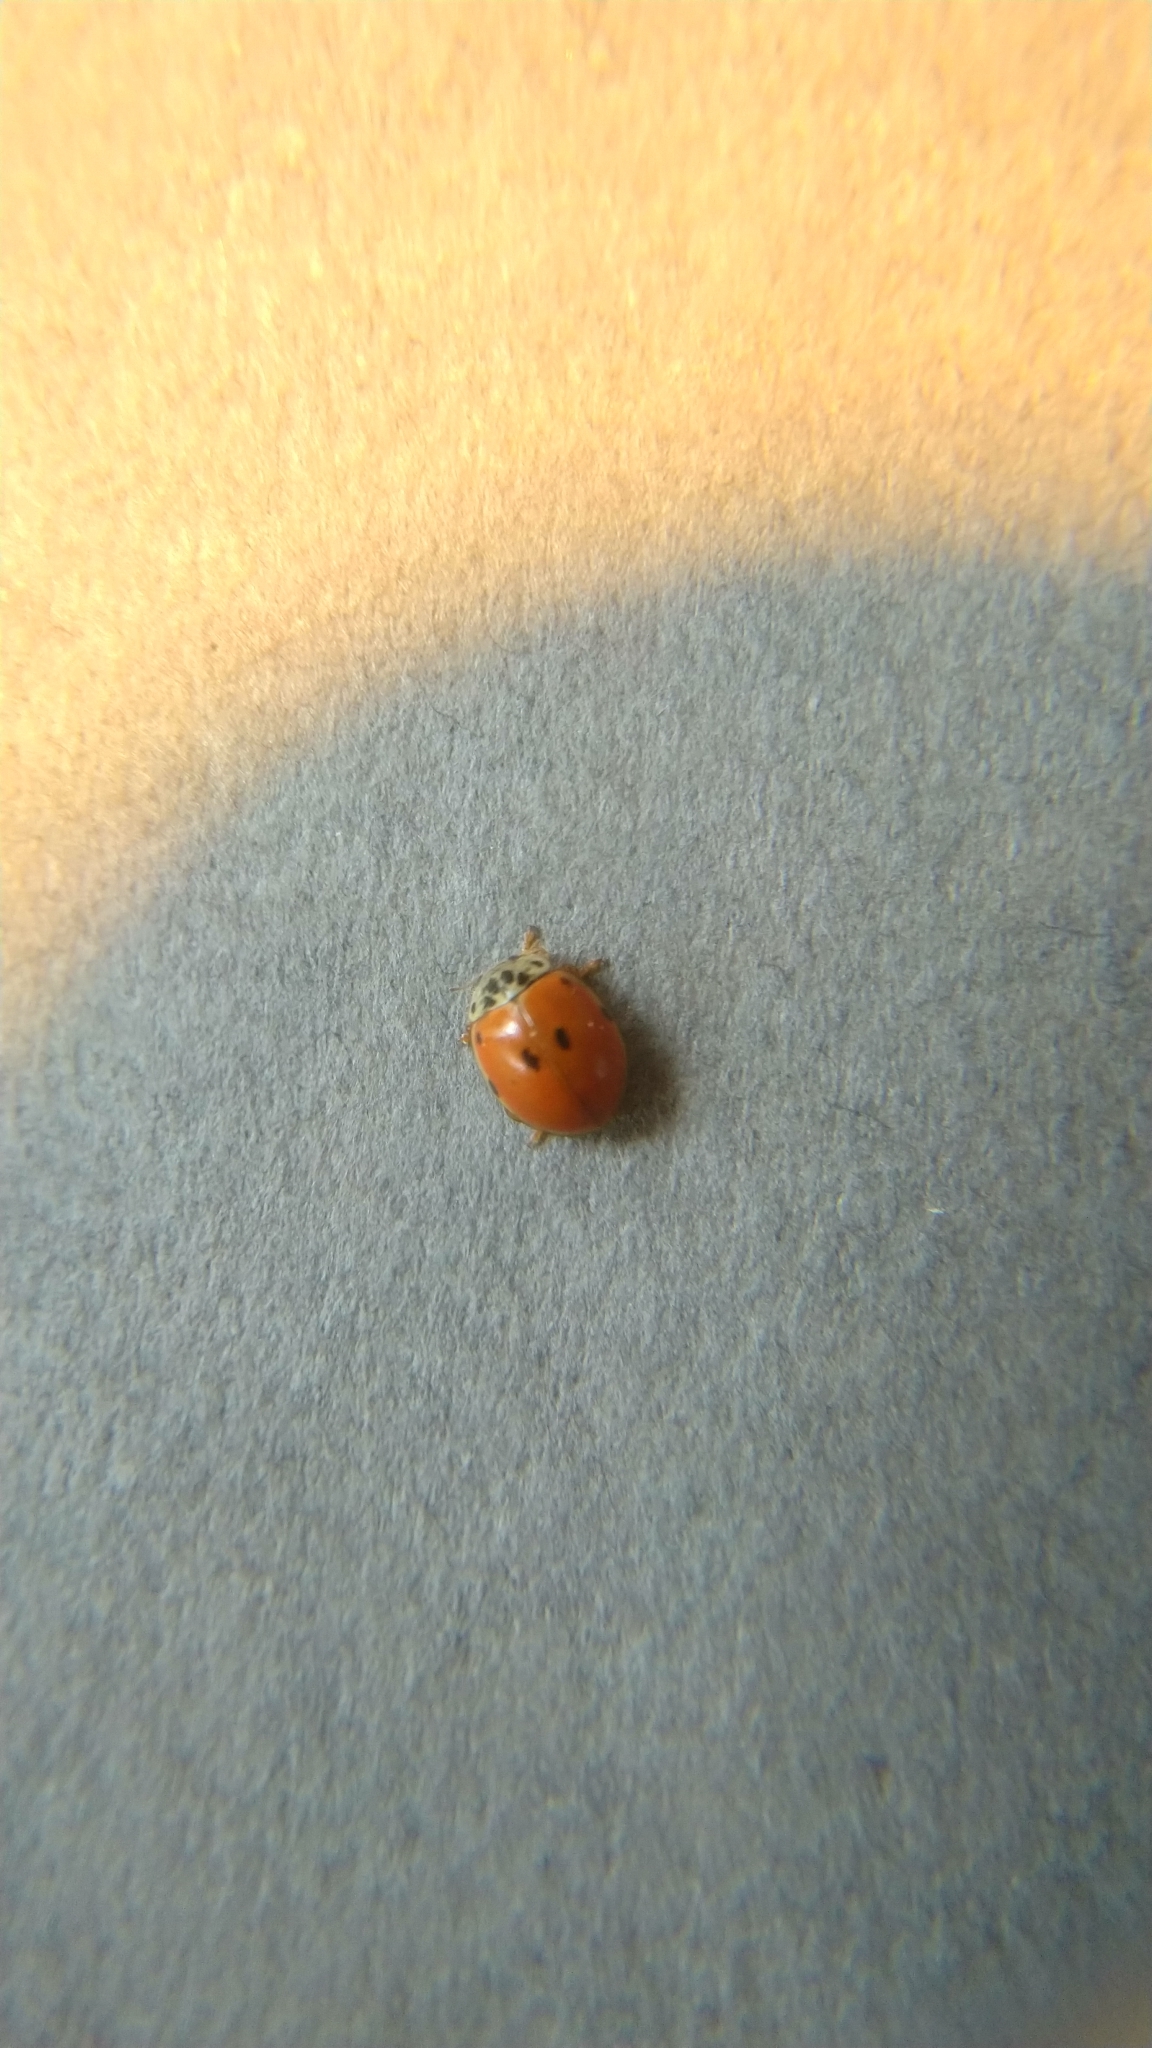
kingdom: Animalia
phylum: Arthropoda
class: Insecta
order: Coleoptera
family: Coccinellidae
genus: Adalia
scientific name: Adalia decempunctata
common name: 10-spot ladybird
